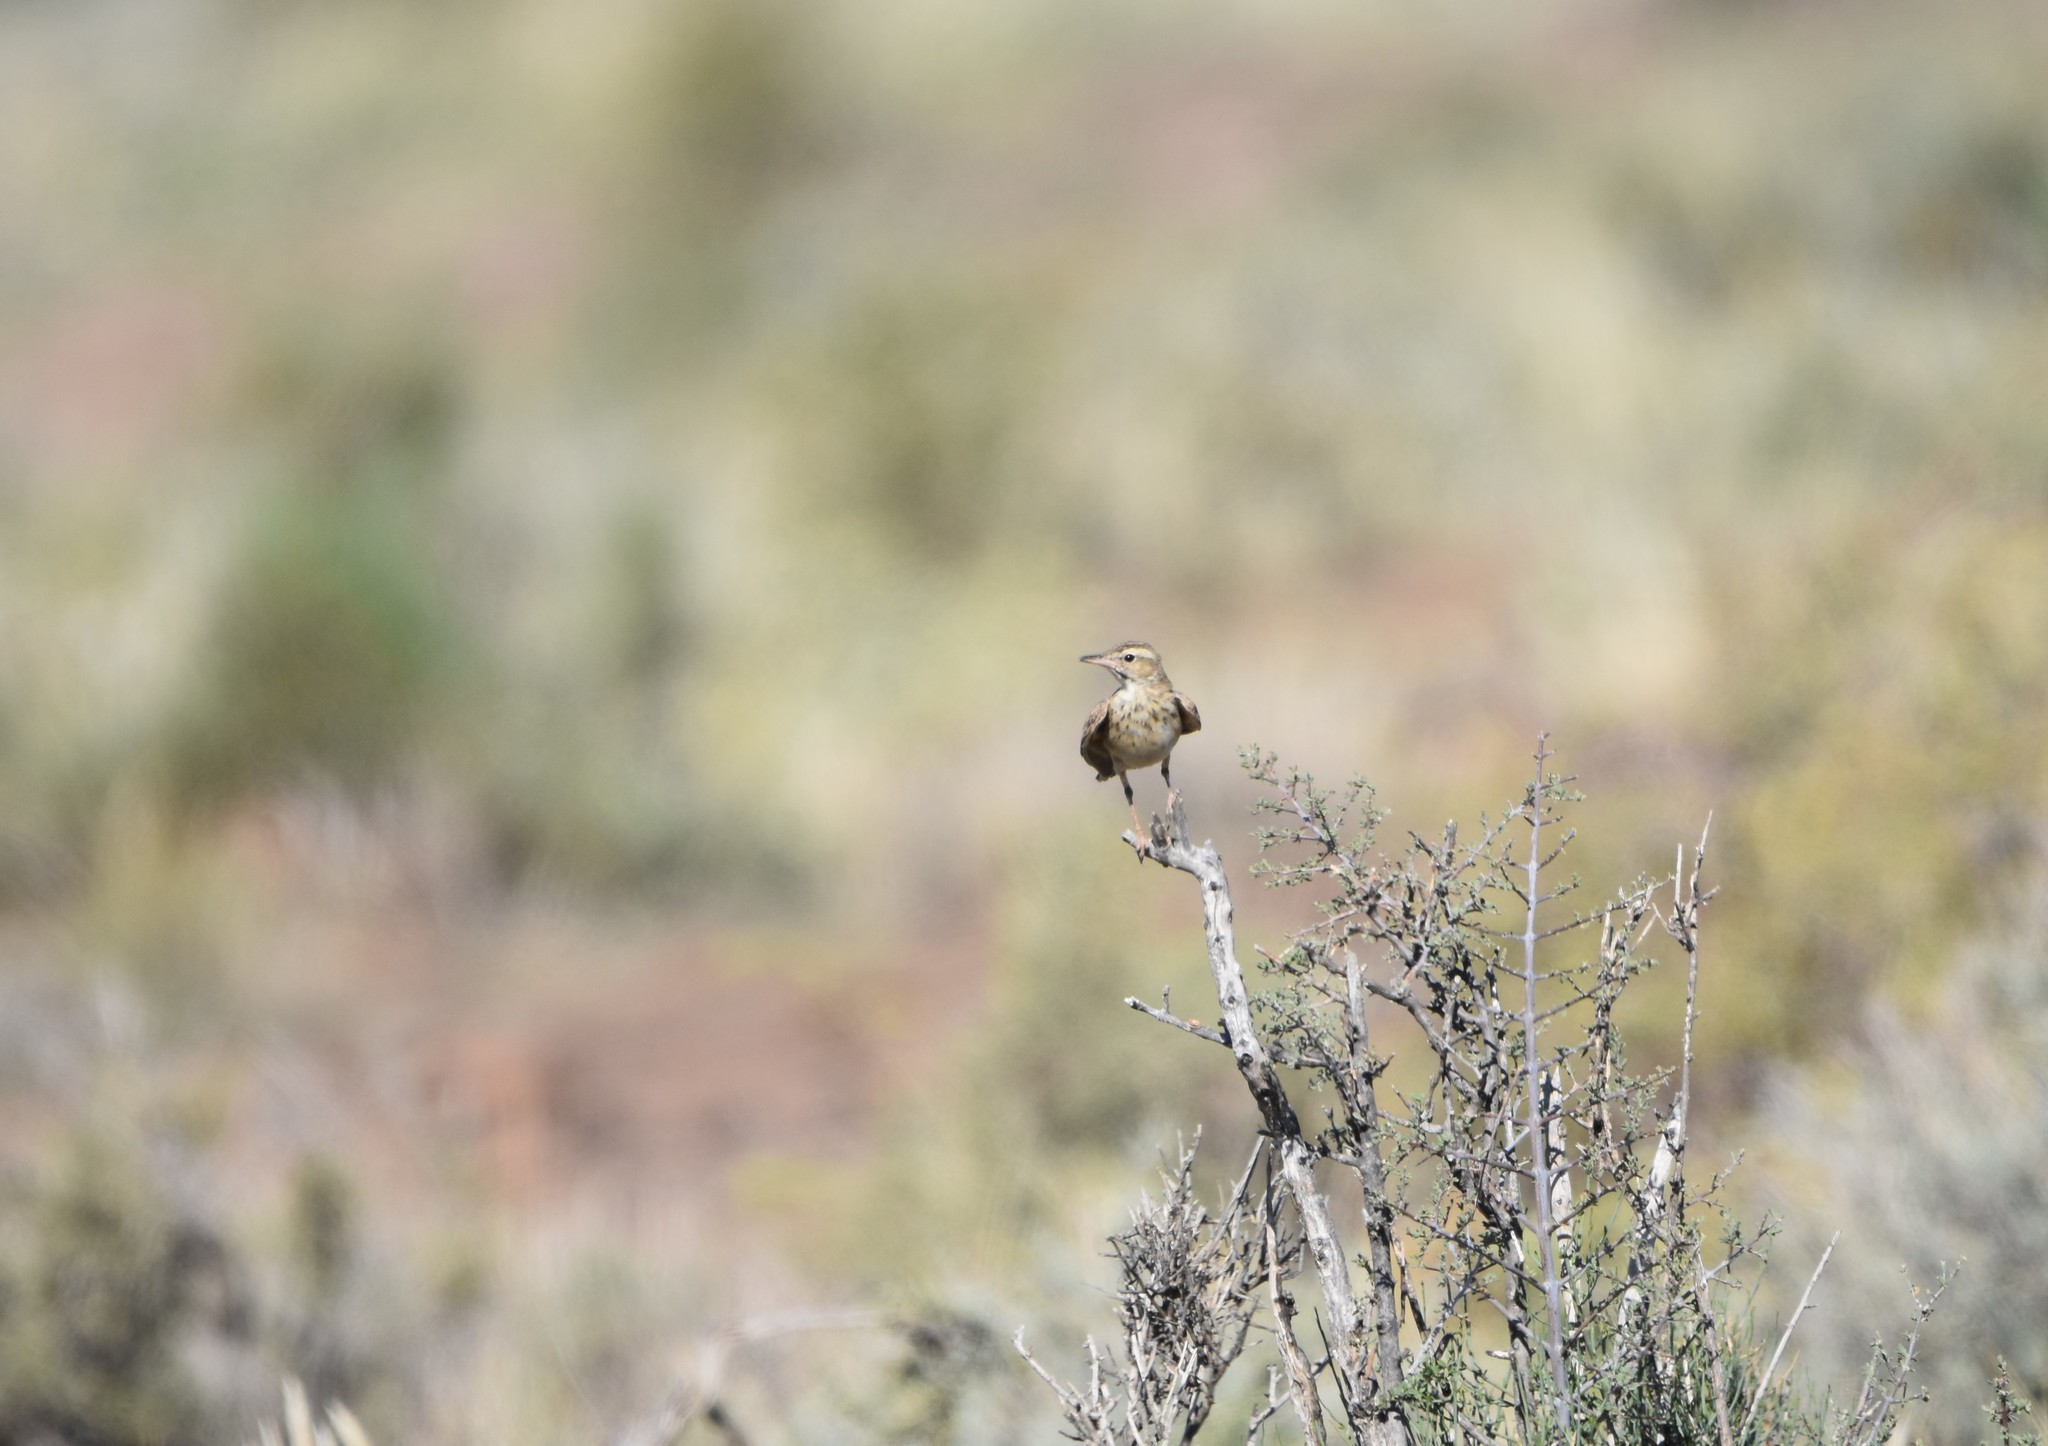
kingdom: Animalia
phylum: Chordata
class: Aves
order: Passeriformes
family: Motacillidae
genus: Anthus
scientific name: Anthus nicholsoni
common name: Nicholson's pipit
